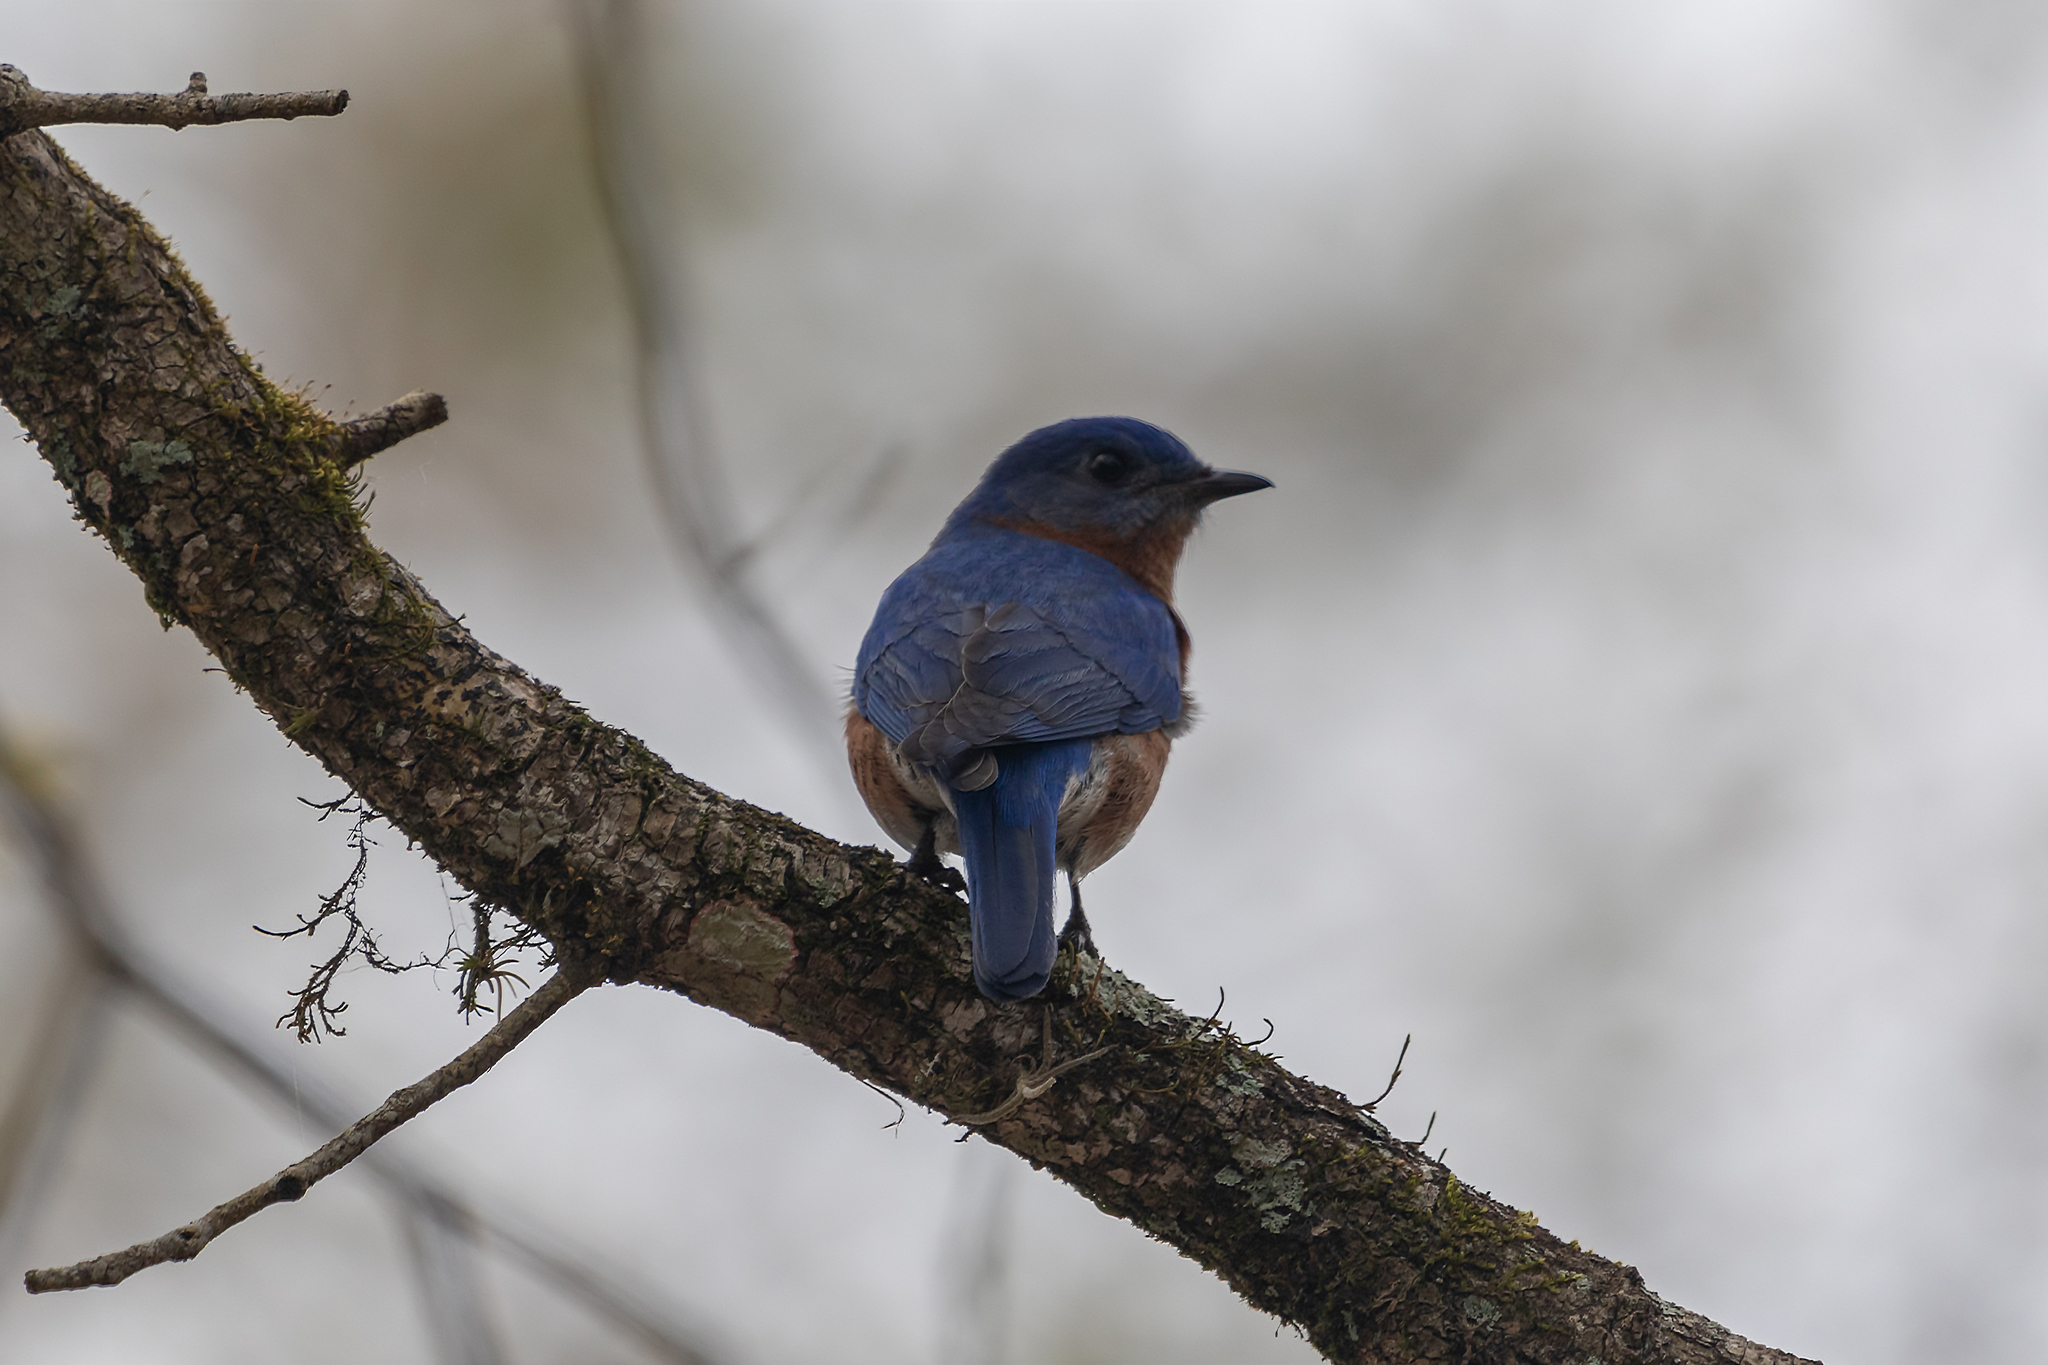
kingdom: Animalia
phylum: Chordata
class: Aves
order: Passeriformes
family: Turdidae
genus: Sialia
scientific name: Sialia sialis
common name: Eastern bluebird
